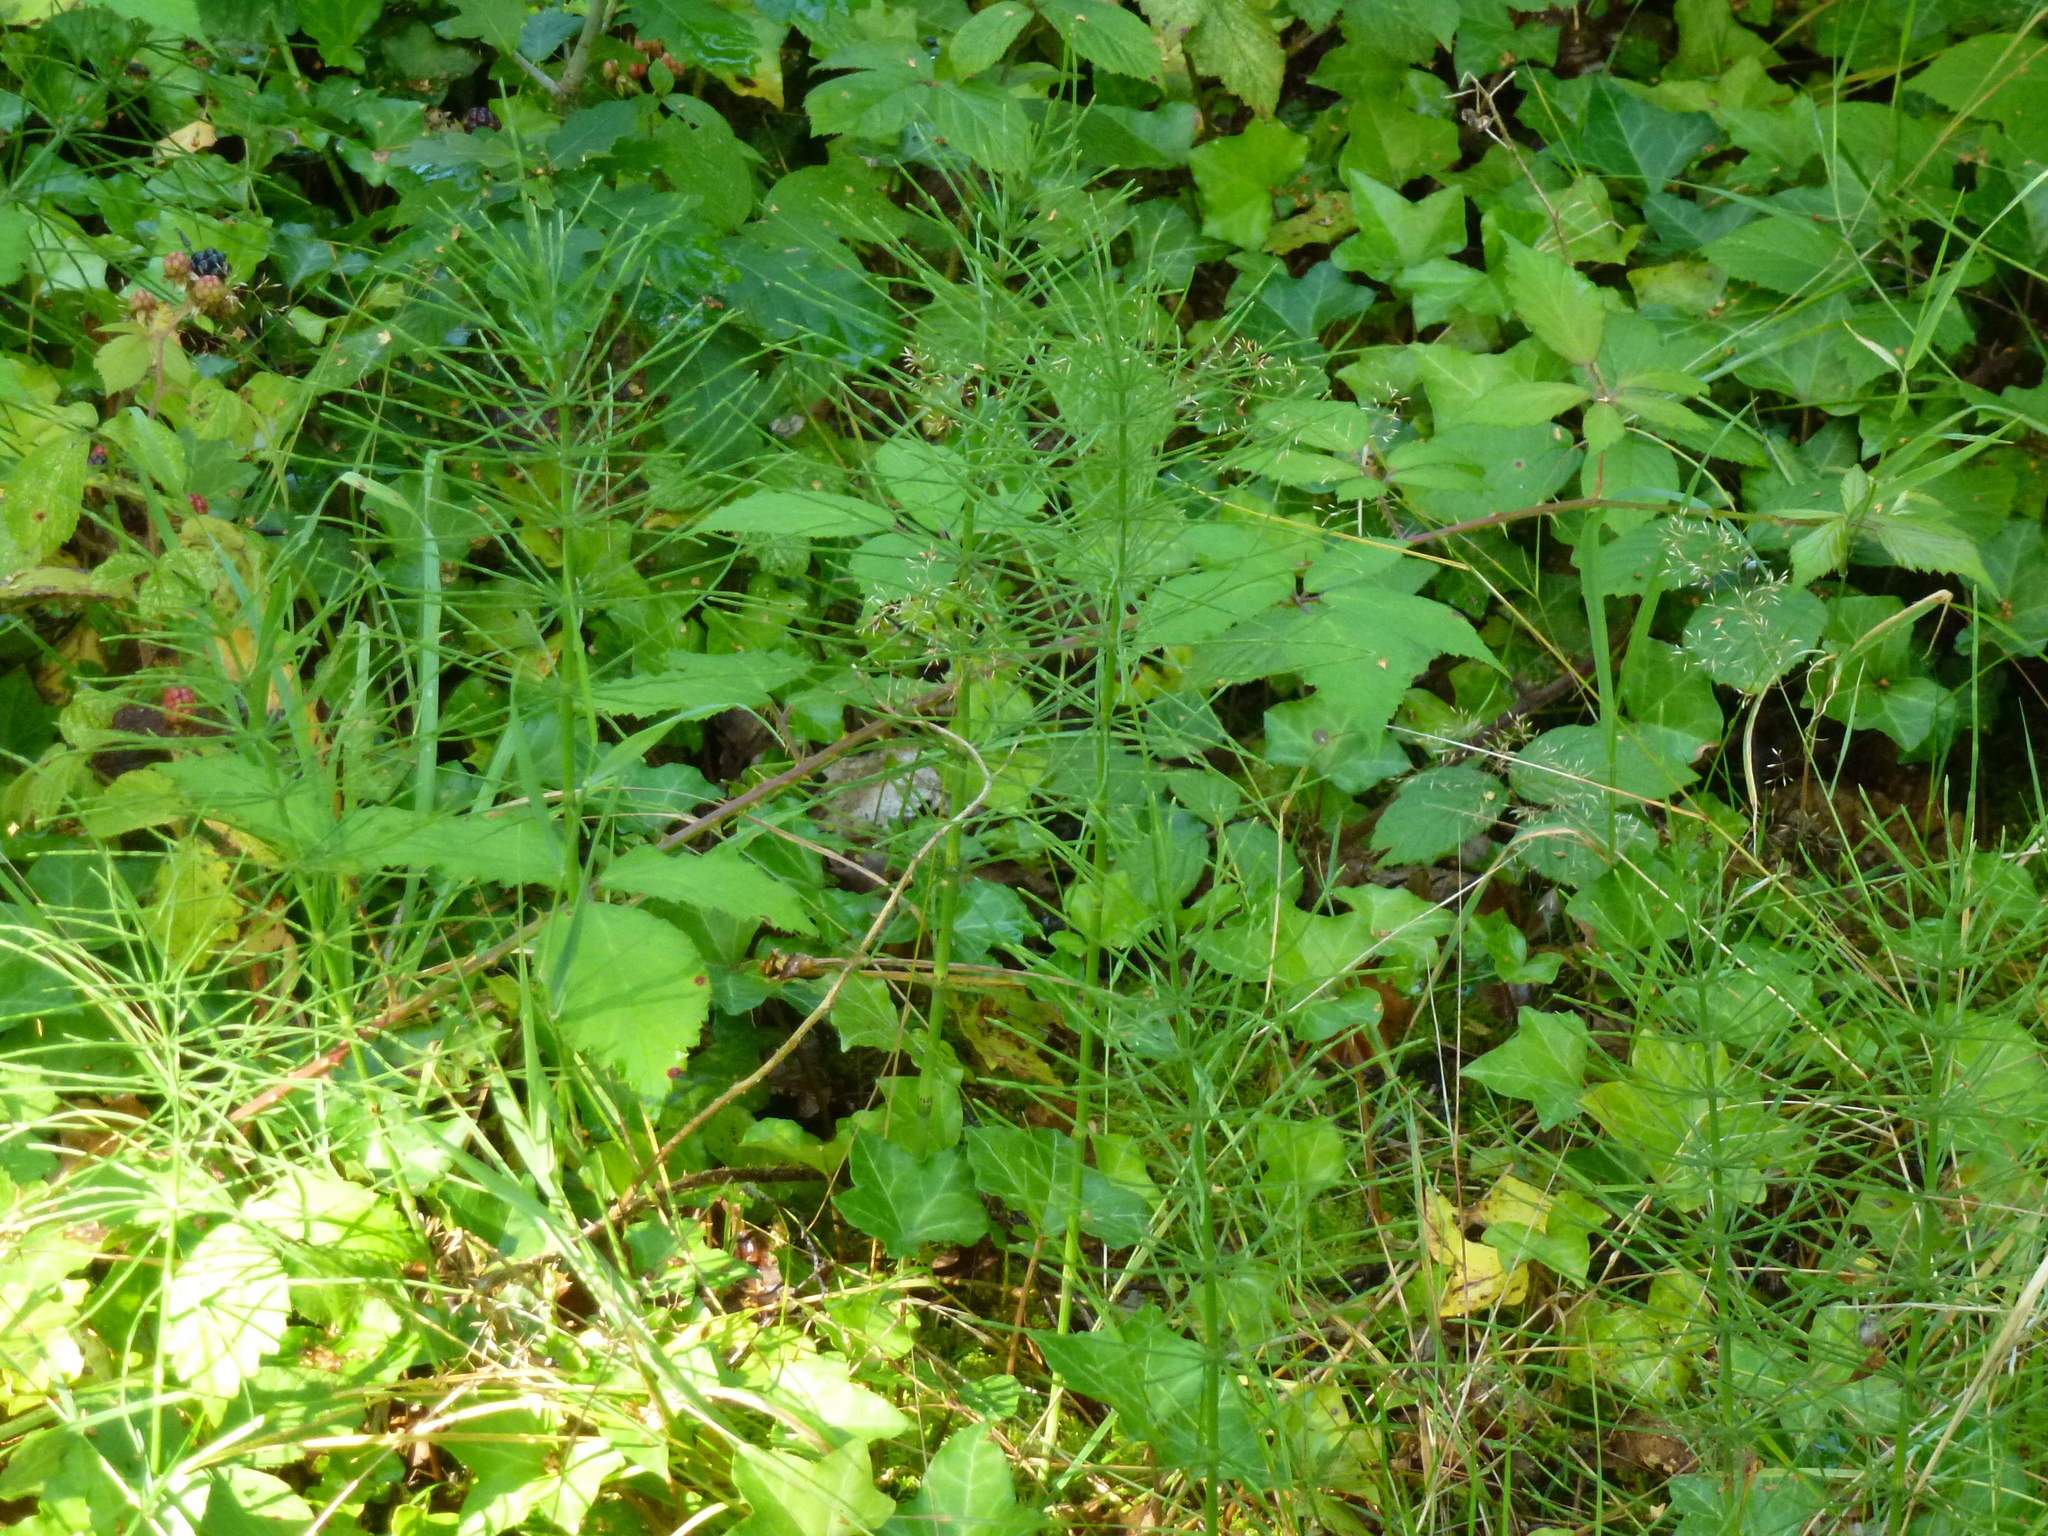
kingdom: Plantae
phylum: Tracheophyta
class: Polypodiopsida
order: Equisetales
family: Equisetaceae
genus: Equisetum
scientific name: Equisetum arvense
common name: Field horsetail
